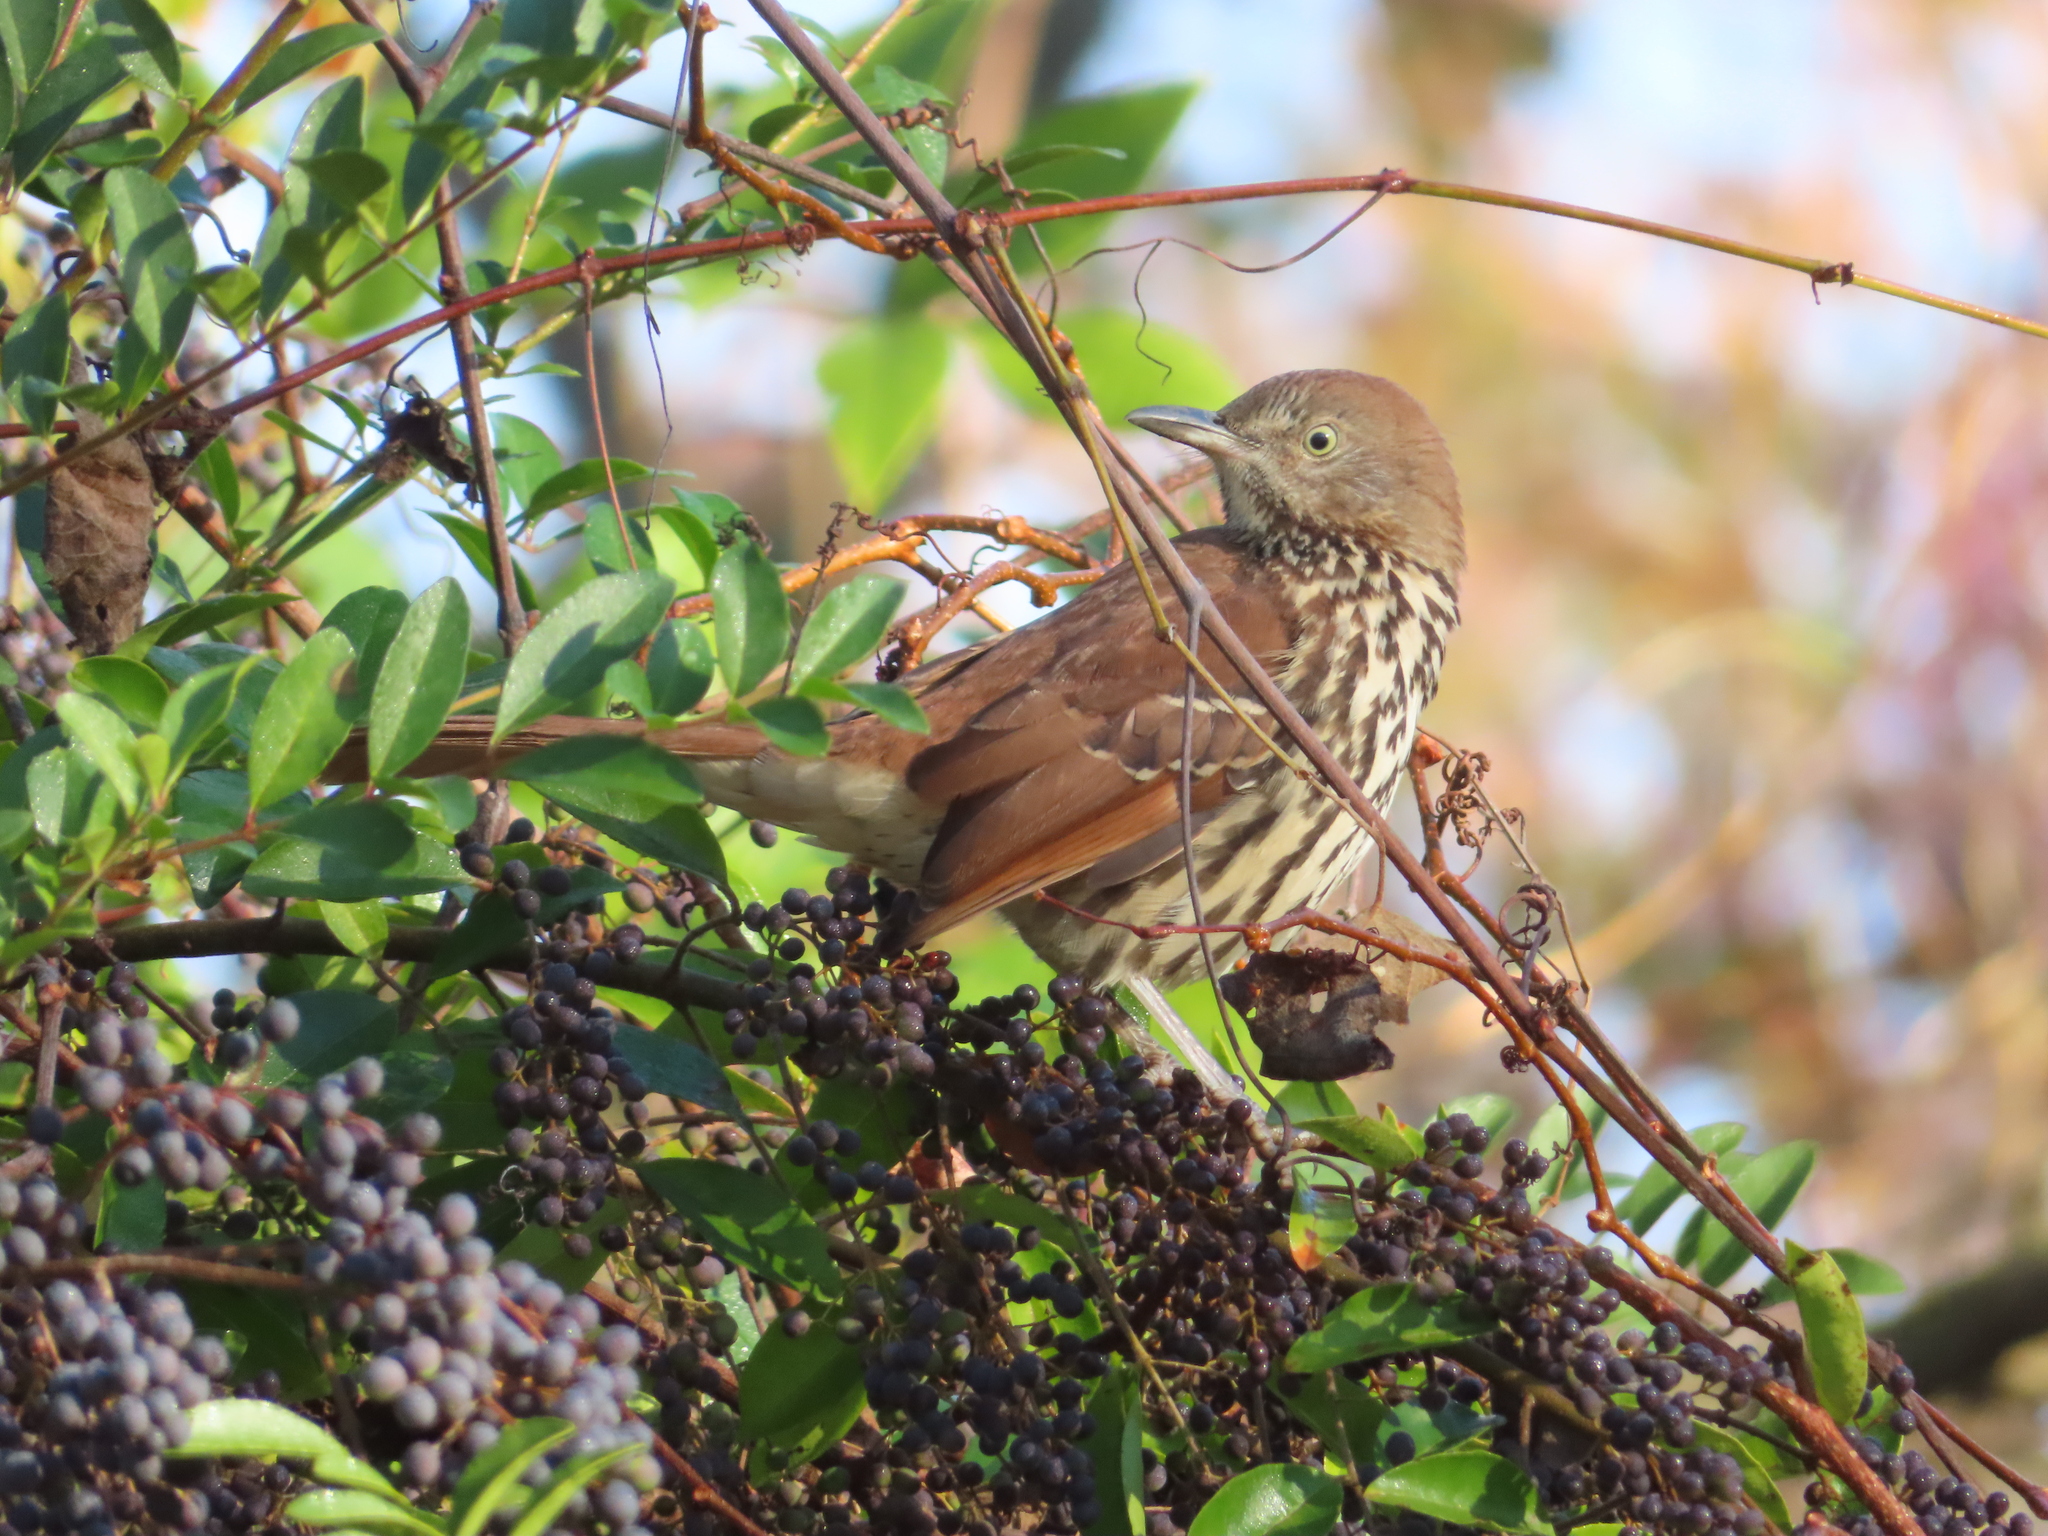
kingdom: Animalia
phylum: Chordata
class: Aves
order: Passeriformes
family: Mimidae
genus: Toxostoma
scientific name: Toxostoma rufum
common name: Brown thrasher
